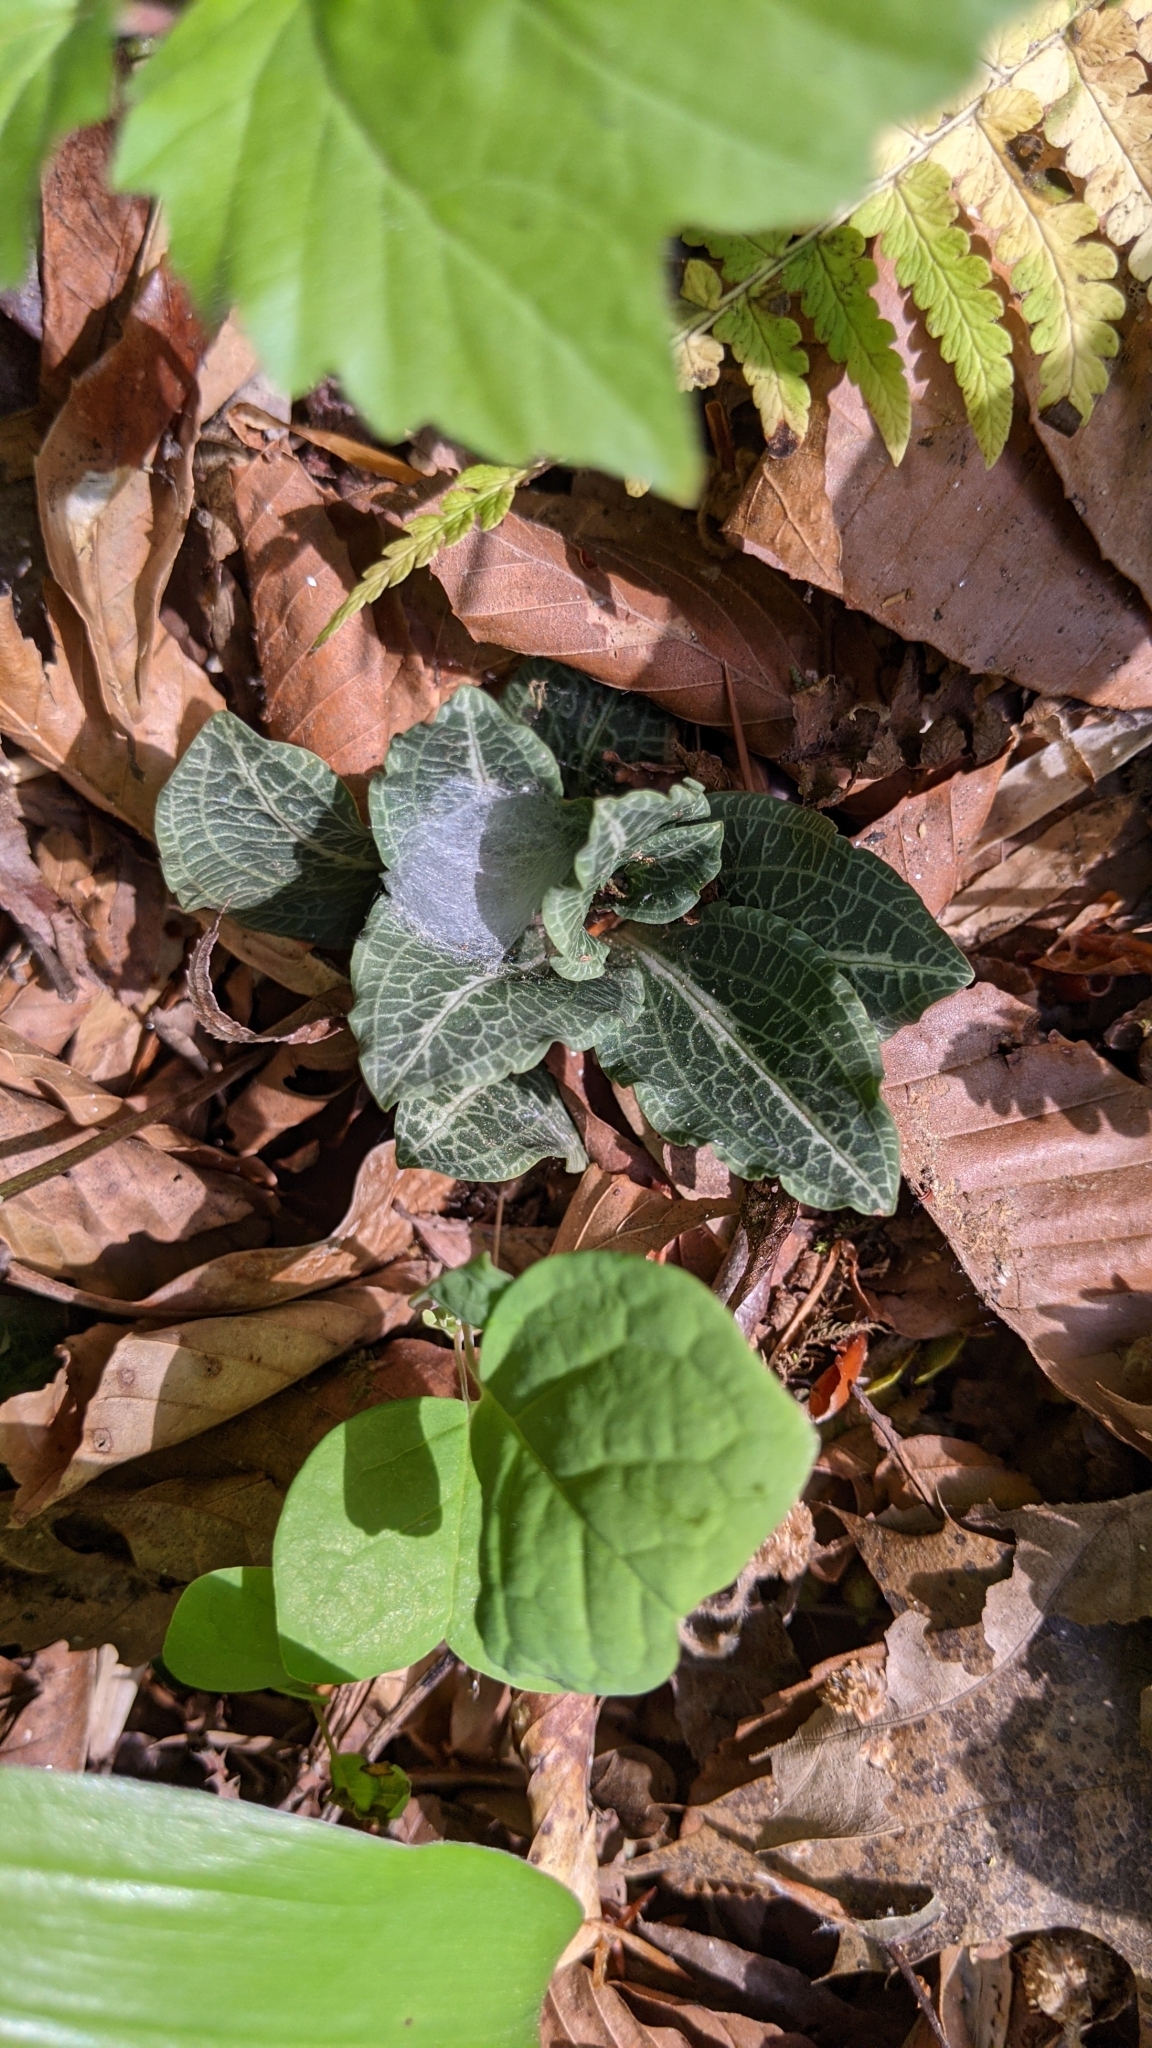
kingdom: Plantae
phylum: Tracheophyta
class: Liliopsida
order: Asparagales
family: Orchidaceae
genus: Goodyera
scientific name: Goodyera pubescens
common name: Downy rattlesnake-plantain
